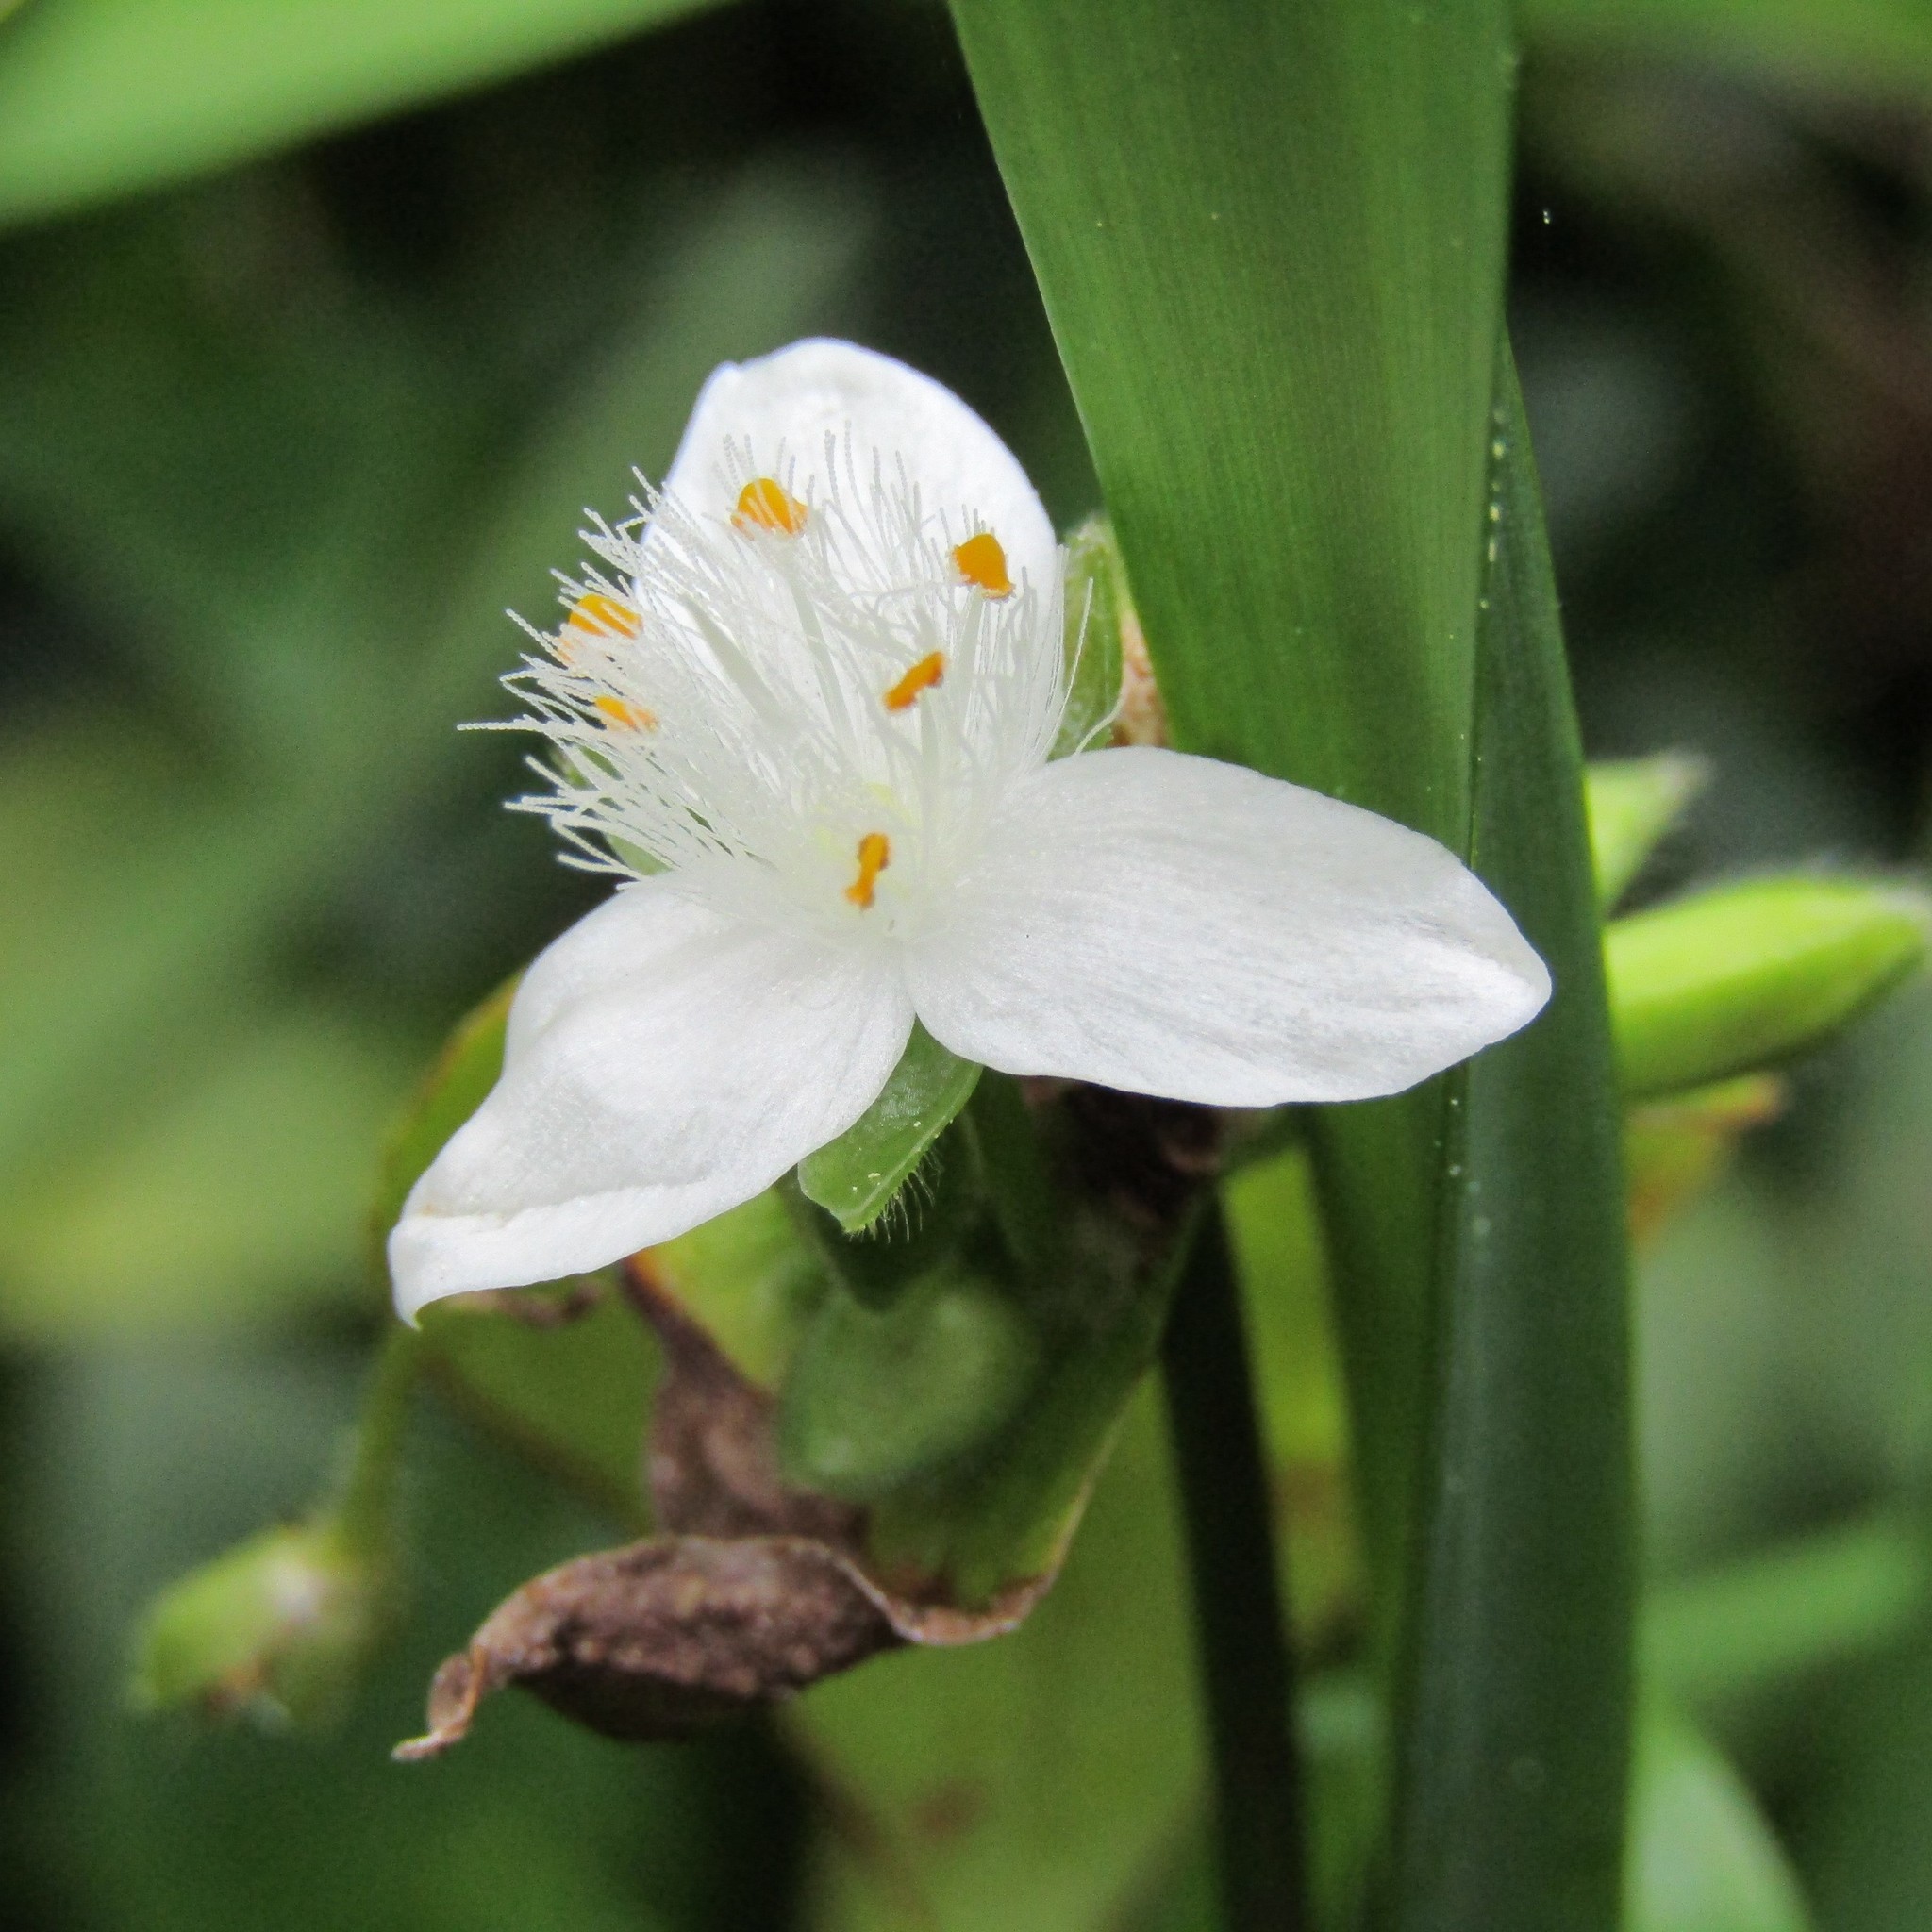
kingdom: Plantae
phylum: Tracheophyta
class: Liliopsida
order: Commelinales
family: Commelinaceae
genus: Tradescantia
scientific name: Tradescantia fluminensis
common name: Wandering-jew
